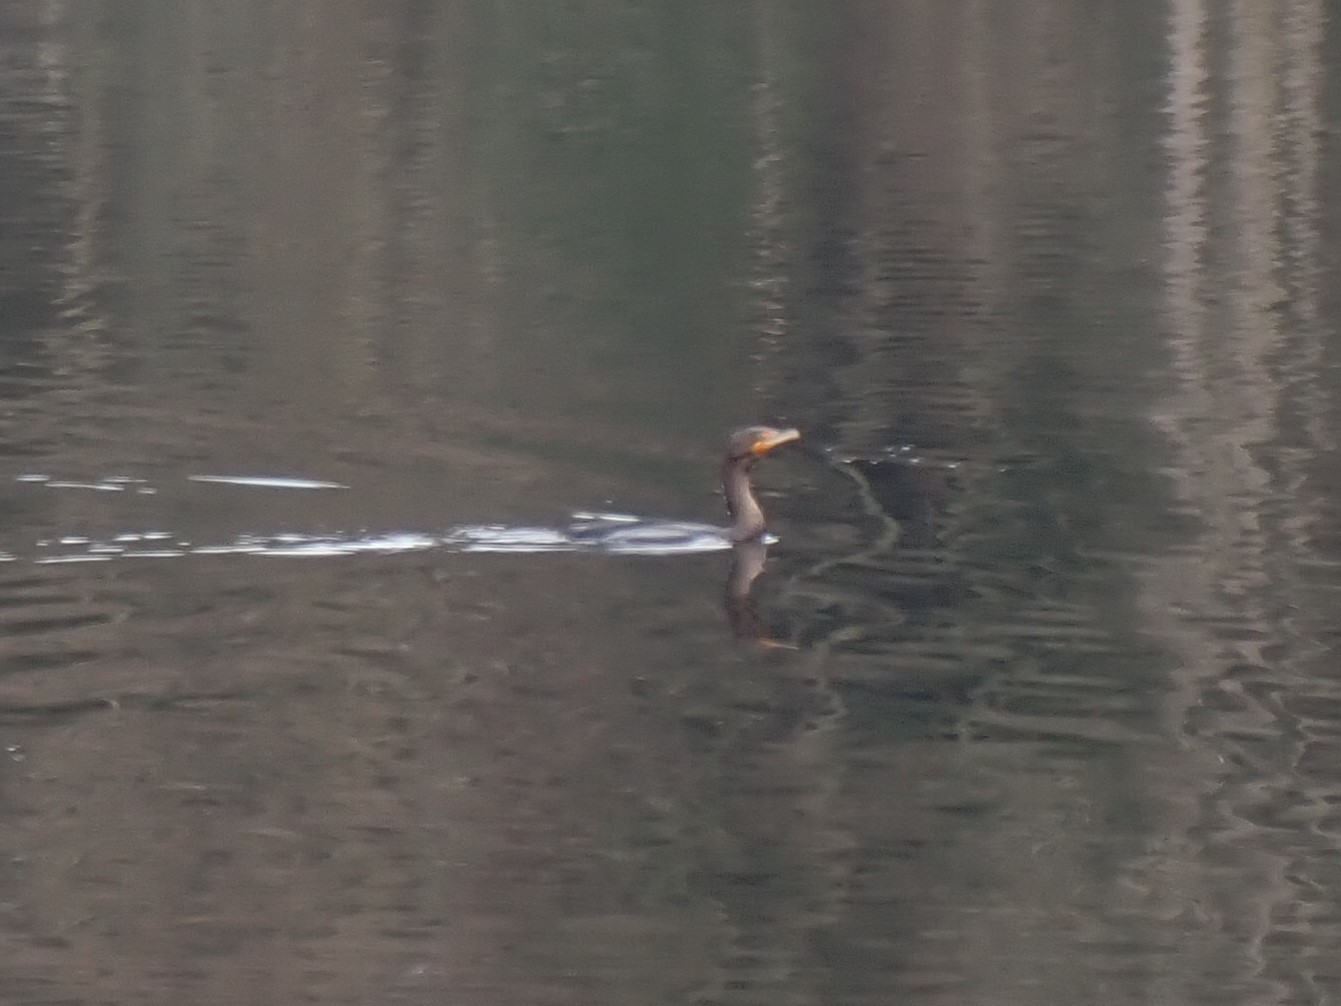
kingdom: Animalia
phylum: Chordata
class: Aves
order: Suliformes
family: Phalacrocoracidae
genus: Phalacrocorax
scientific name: Phalacrocorax auritus
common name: Double-crested cormorant
